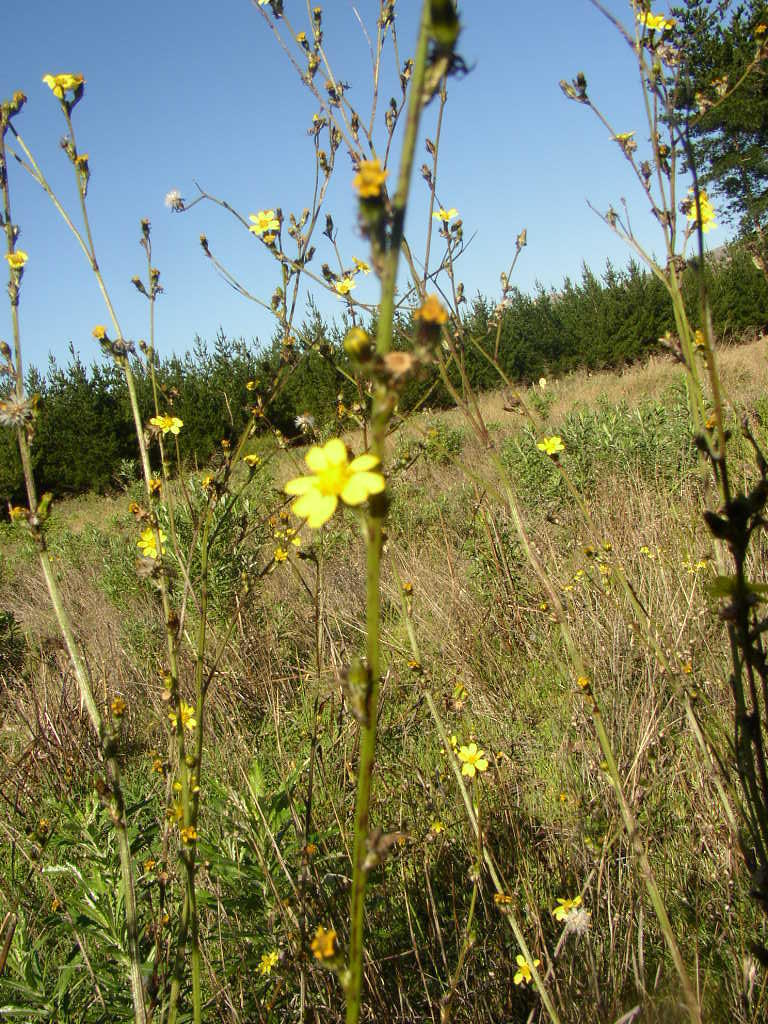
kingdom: Plantae
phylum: Tracheophyta
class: Magnoliopsida
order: Asterales
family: Asteraceae
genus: Senecio
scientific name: Senecio pubigerus
